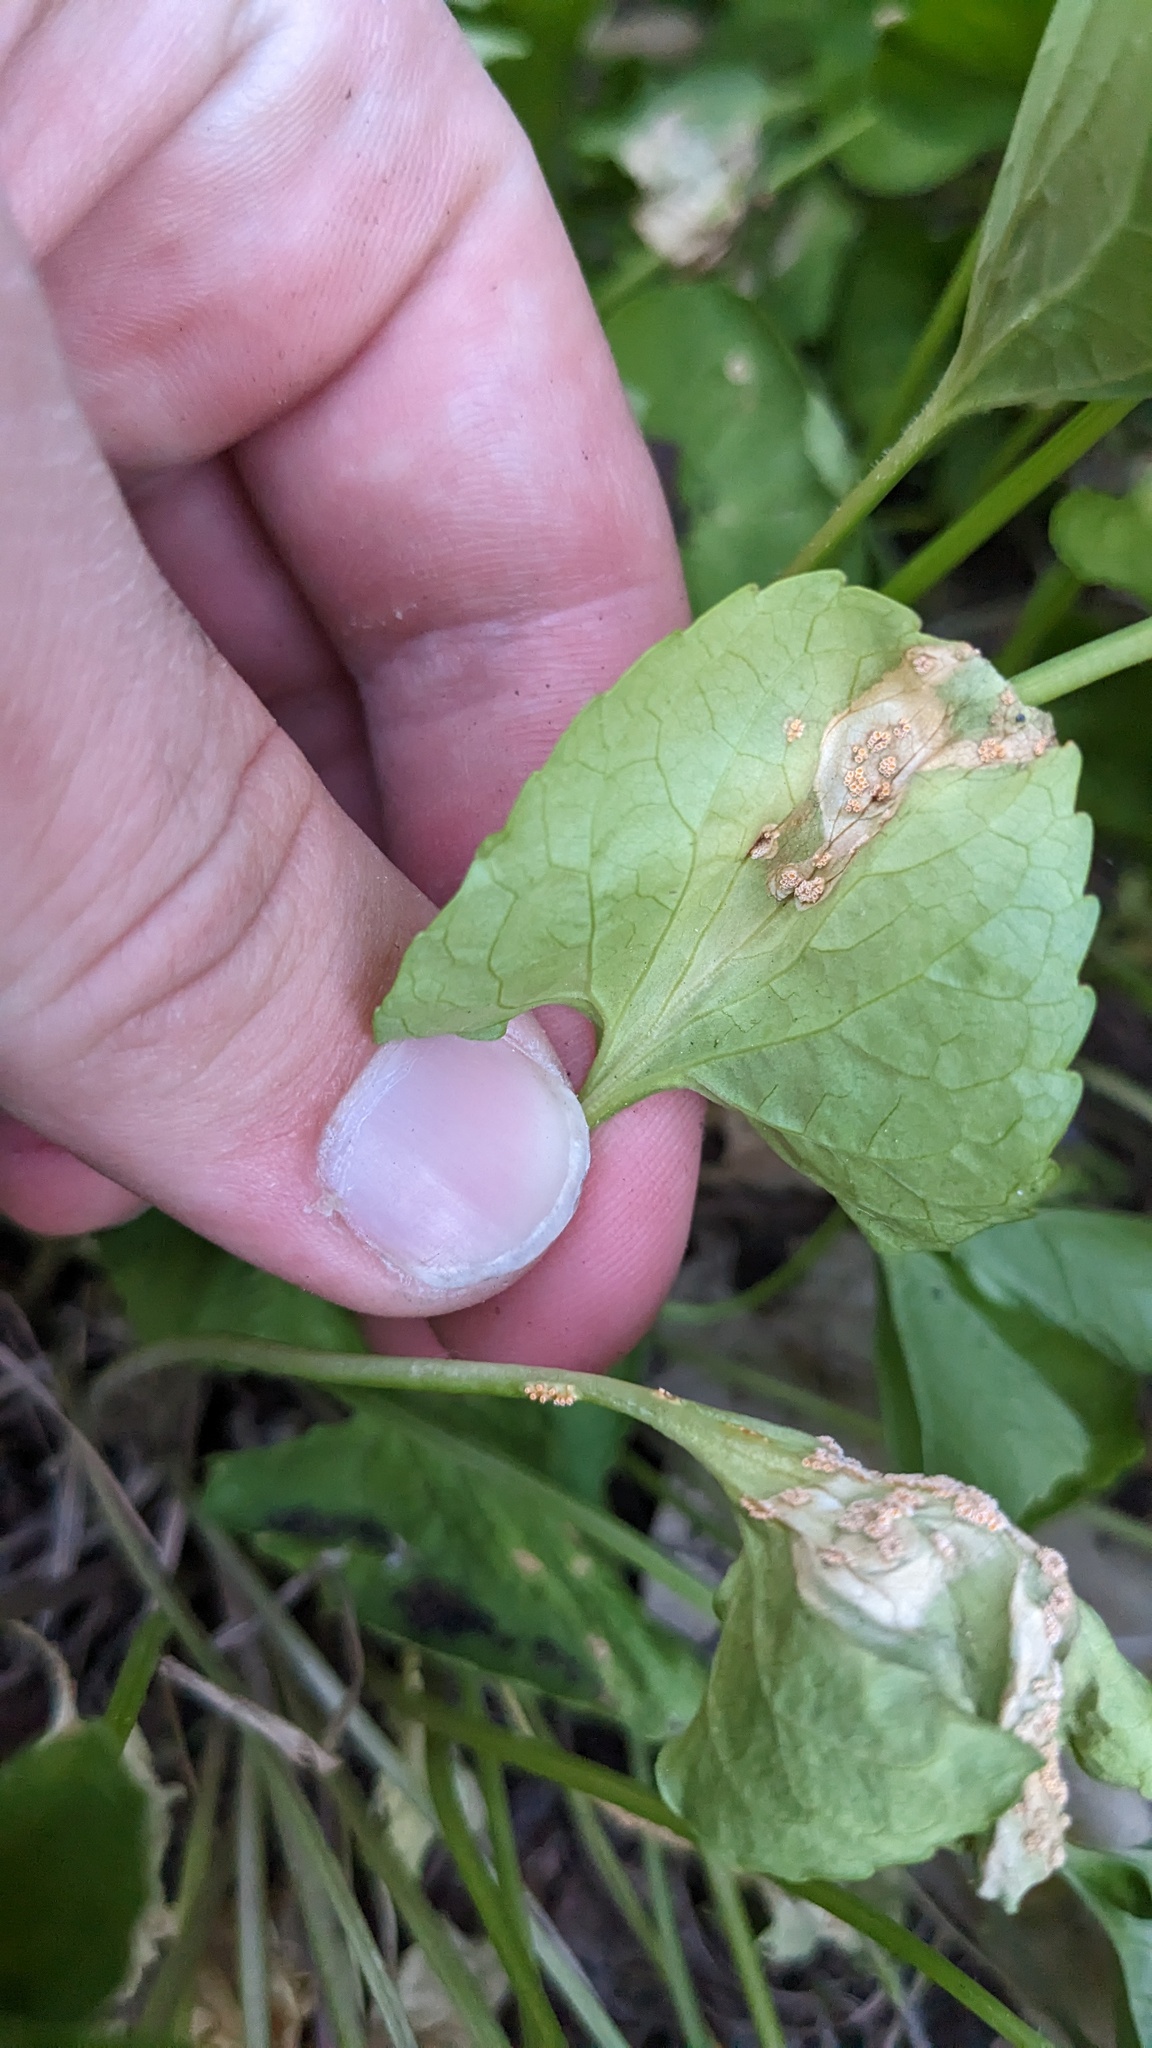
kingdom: Fungi
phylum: Basidiomycota
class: Pucciniomycetes
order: Pucciniales
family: Pucciniaceae
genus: Puccinia
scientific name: Puccinia violae
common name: Violet rust
